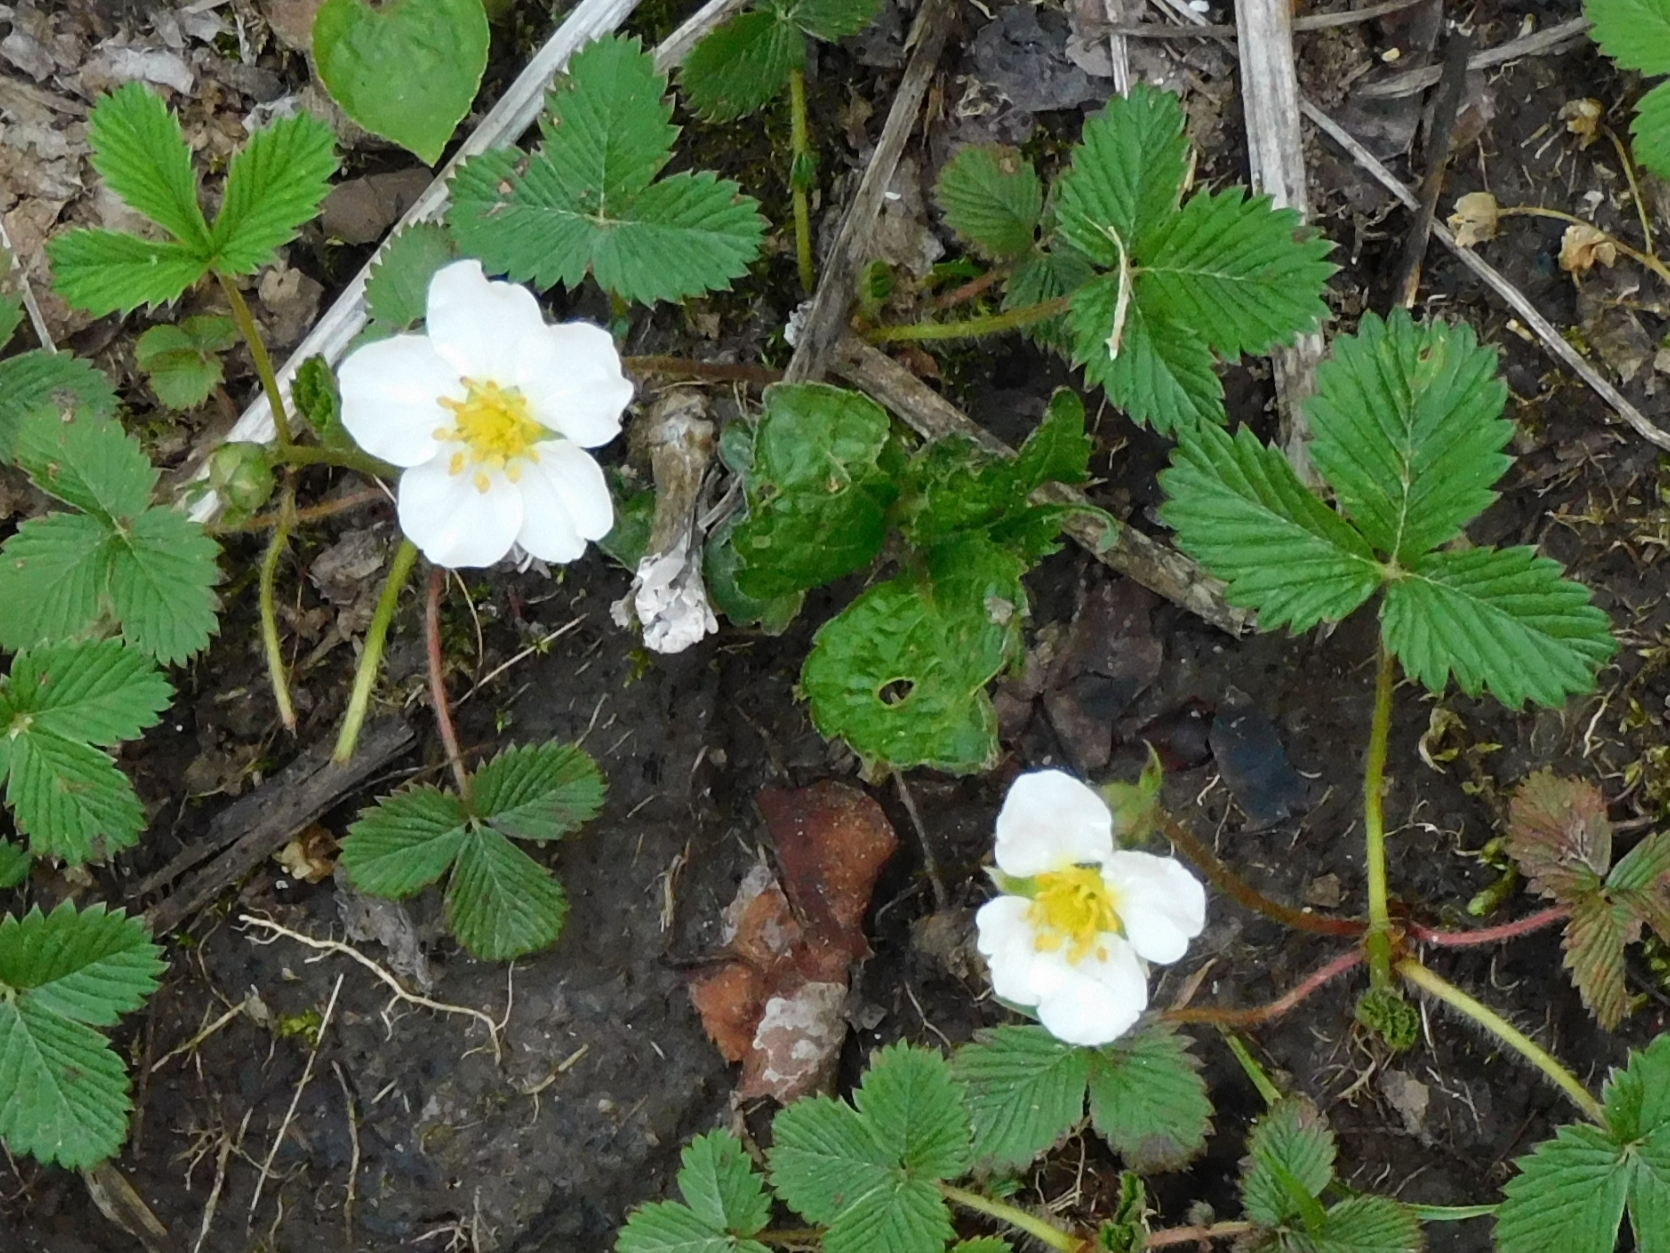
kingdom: Plantae
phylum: Tracheophyta
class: Magnoliopsida
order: Rosales
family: Rosaceae
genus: Fragaria
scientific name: Fragaria nubicola
